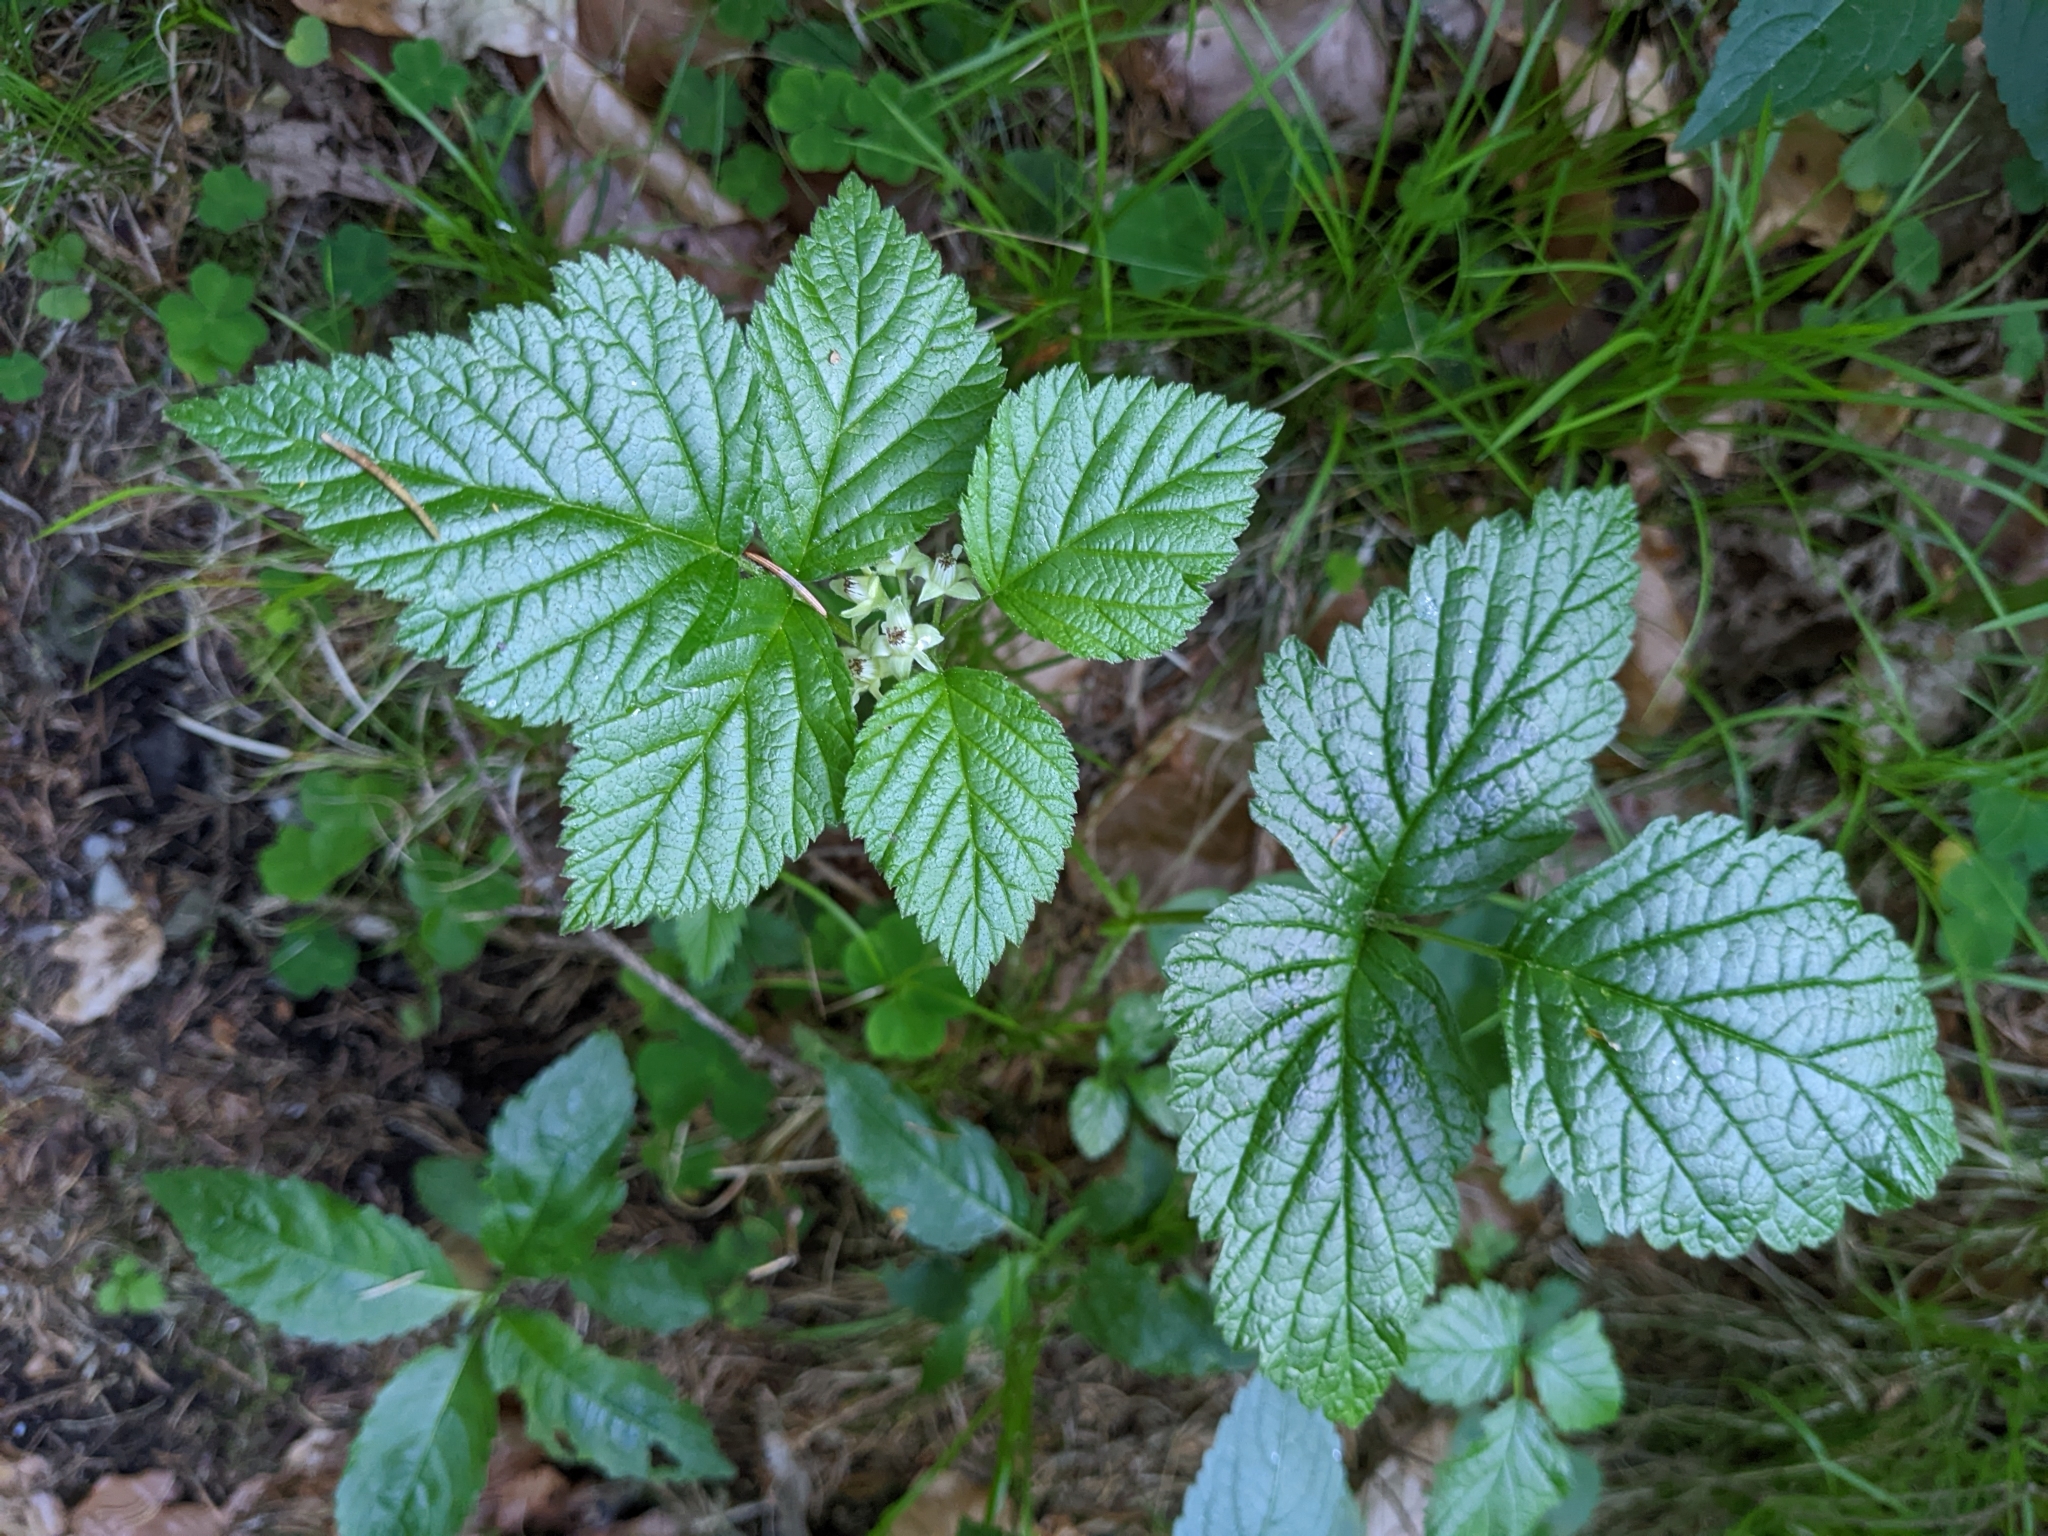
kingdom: Plantae
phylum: Tracheophyta
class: Magnoliopsida
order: Rosales
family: Rosaceae
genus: Rubus
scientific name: Rubus saxatilis
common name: Stone bramble
